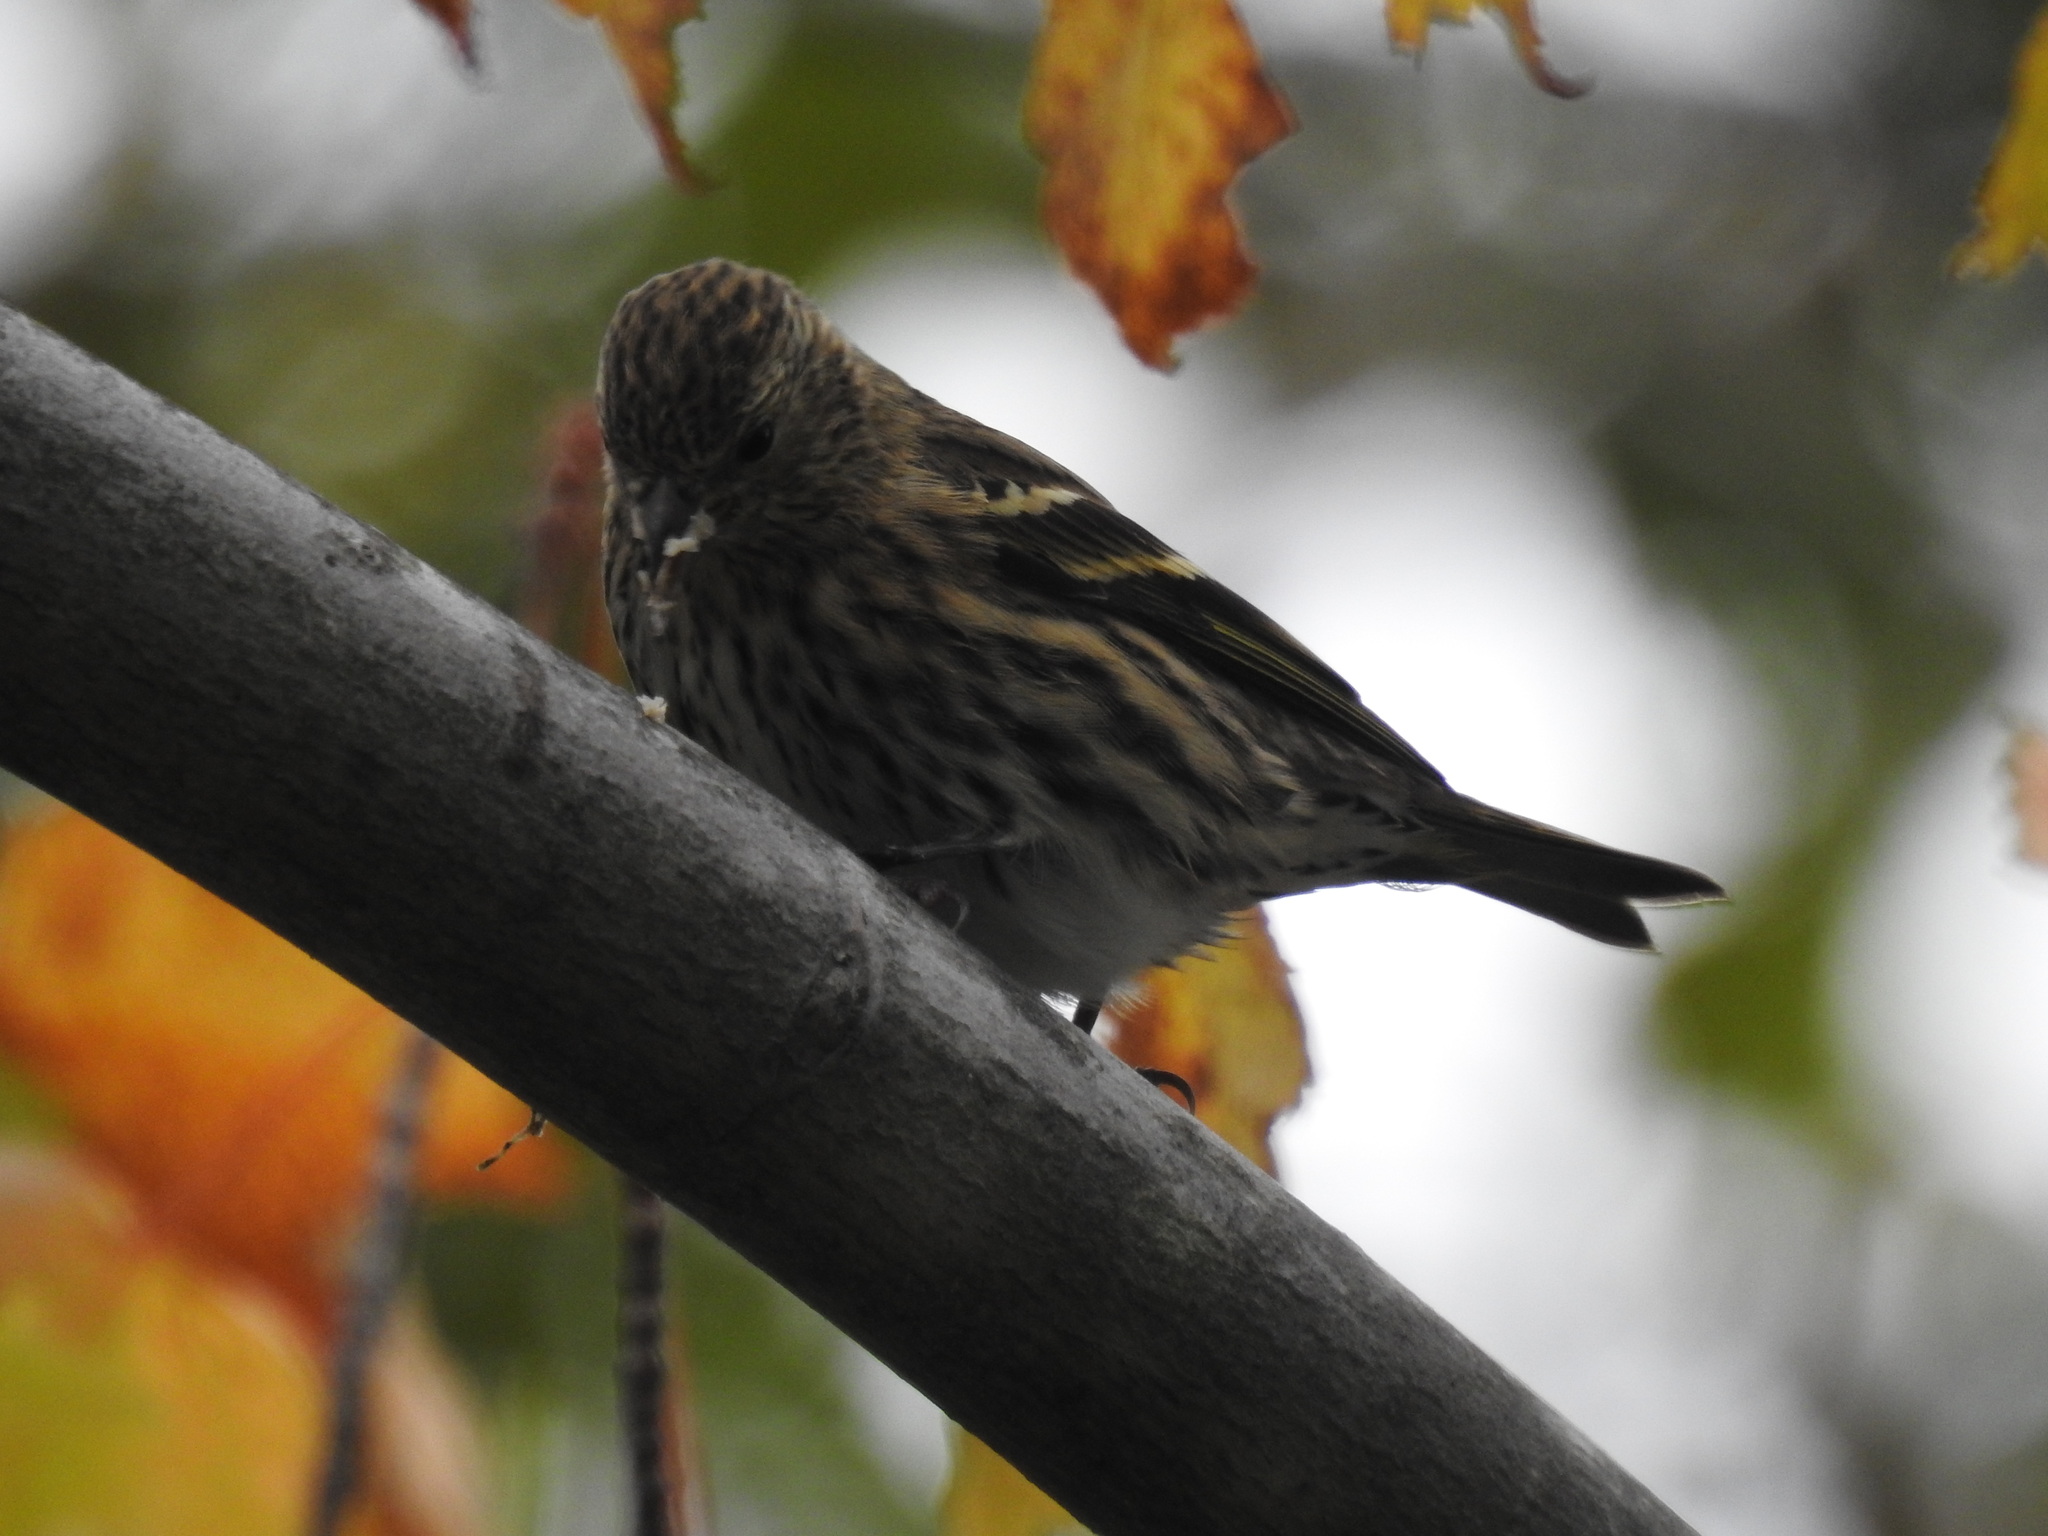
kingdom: Animalia
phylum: Chordata
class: Aves
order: Passeriformes
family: Fringillidae
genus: Spinus
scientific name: Spinus pinus
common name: Pine siskin
